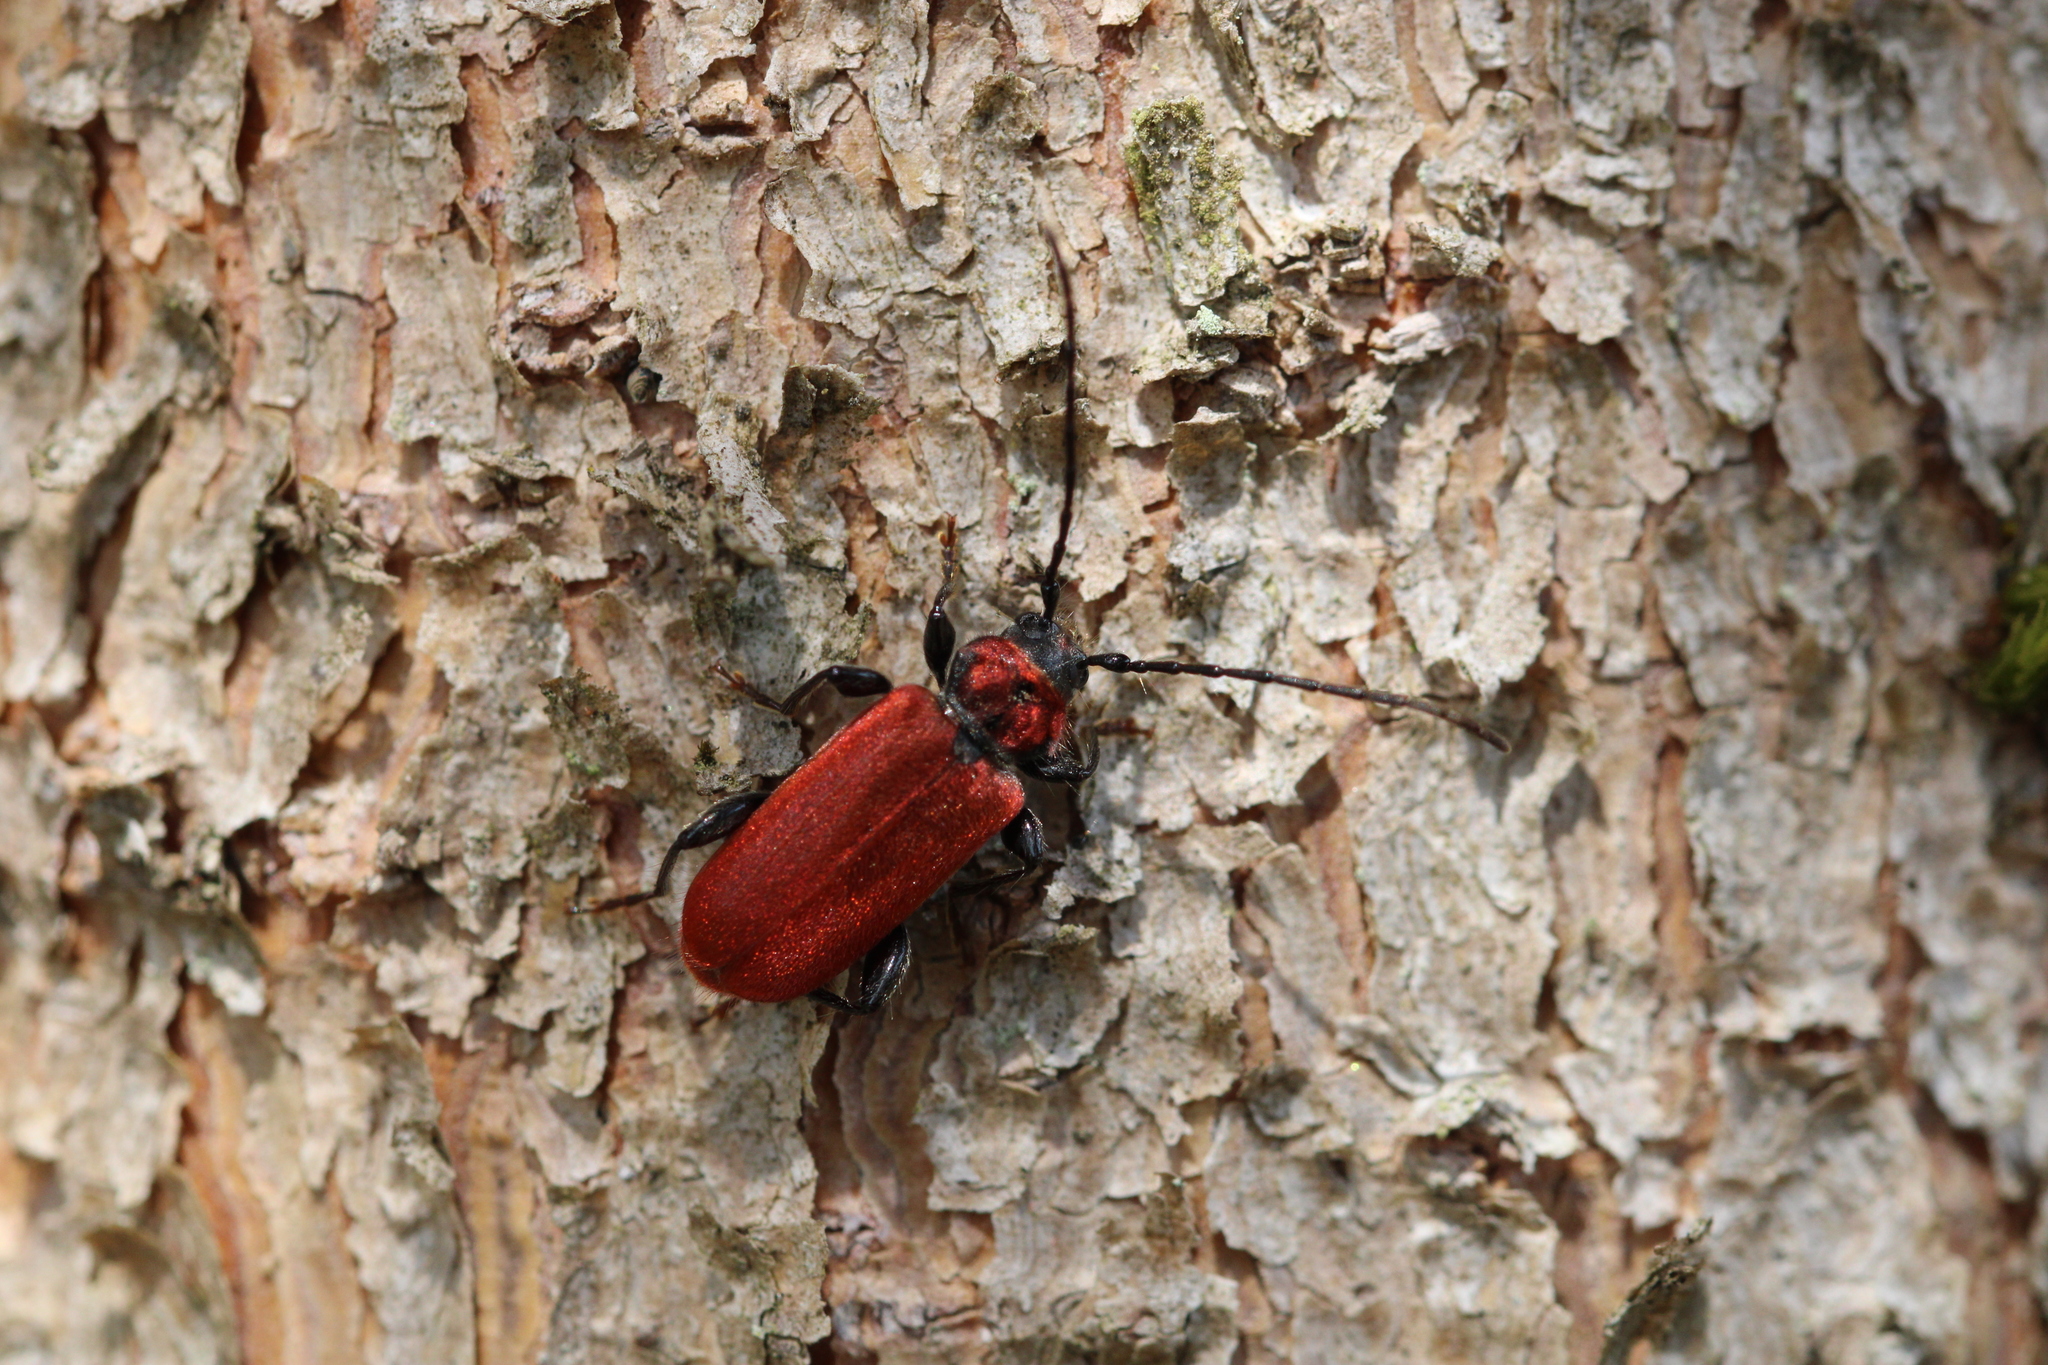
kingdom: Animalia
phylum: Arthropoda
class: Insecta
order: Coleoptera
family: Cerambycidae
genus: Pyrrhidium
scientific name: Pyrrhidium sanguineum
